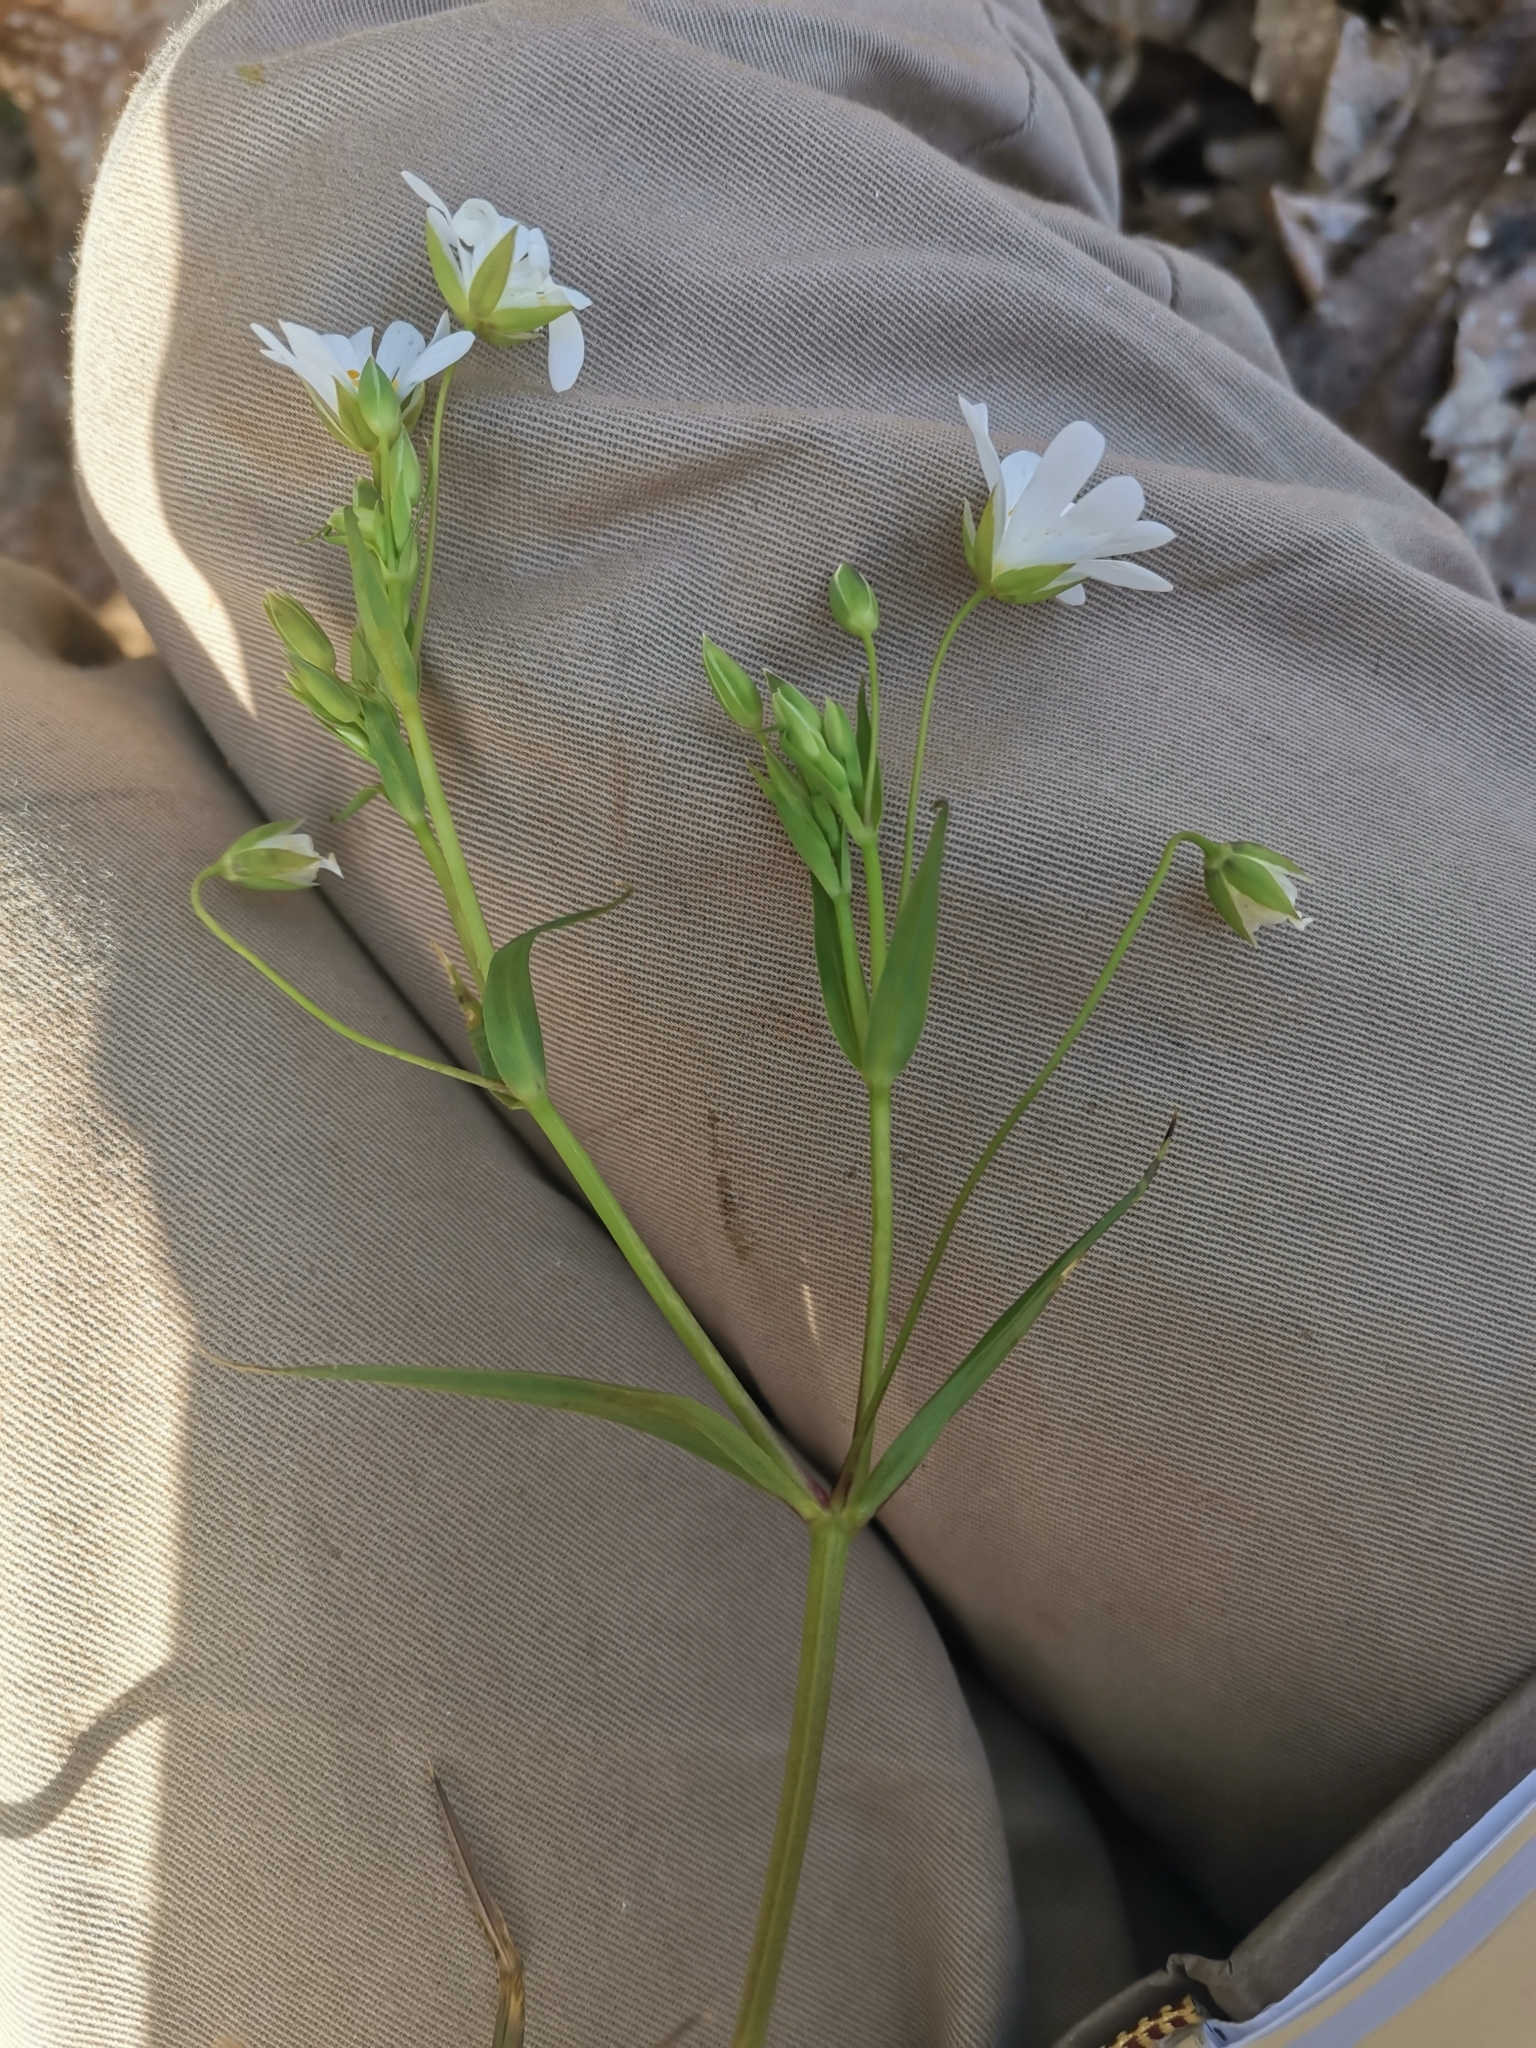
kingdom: Plantae
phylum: Tracheophyta
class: Magnoliopsida
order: Caryophyllales
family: Caryophyllaceae
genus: Rabelera
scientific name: Rabelera holostea
